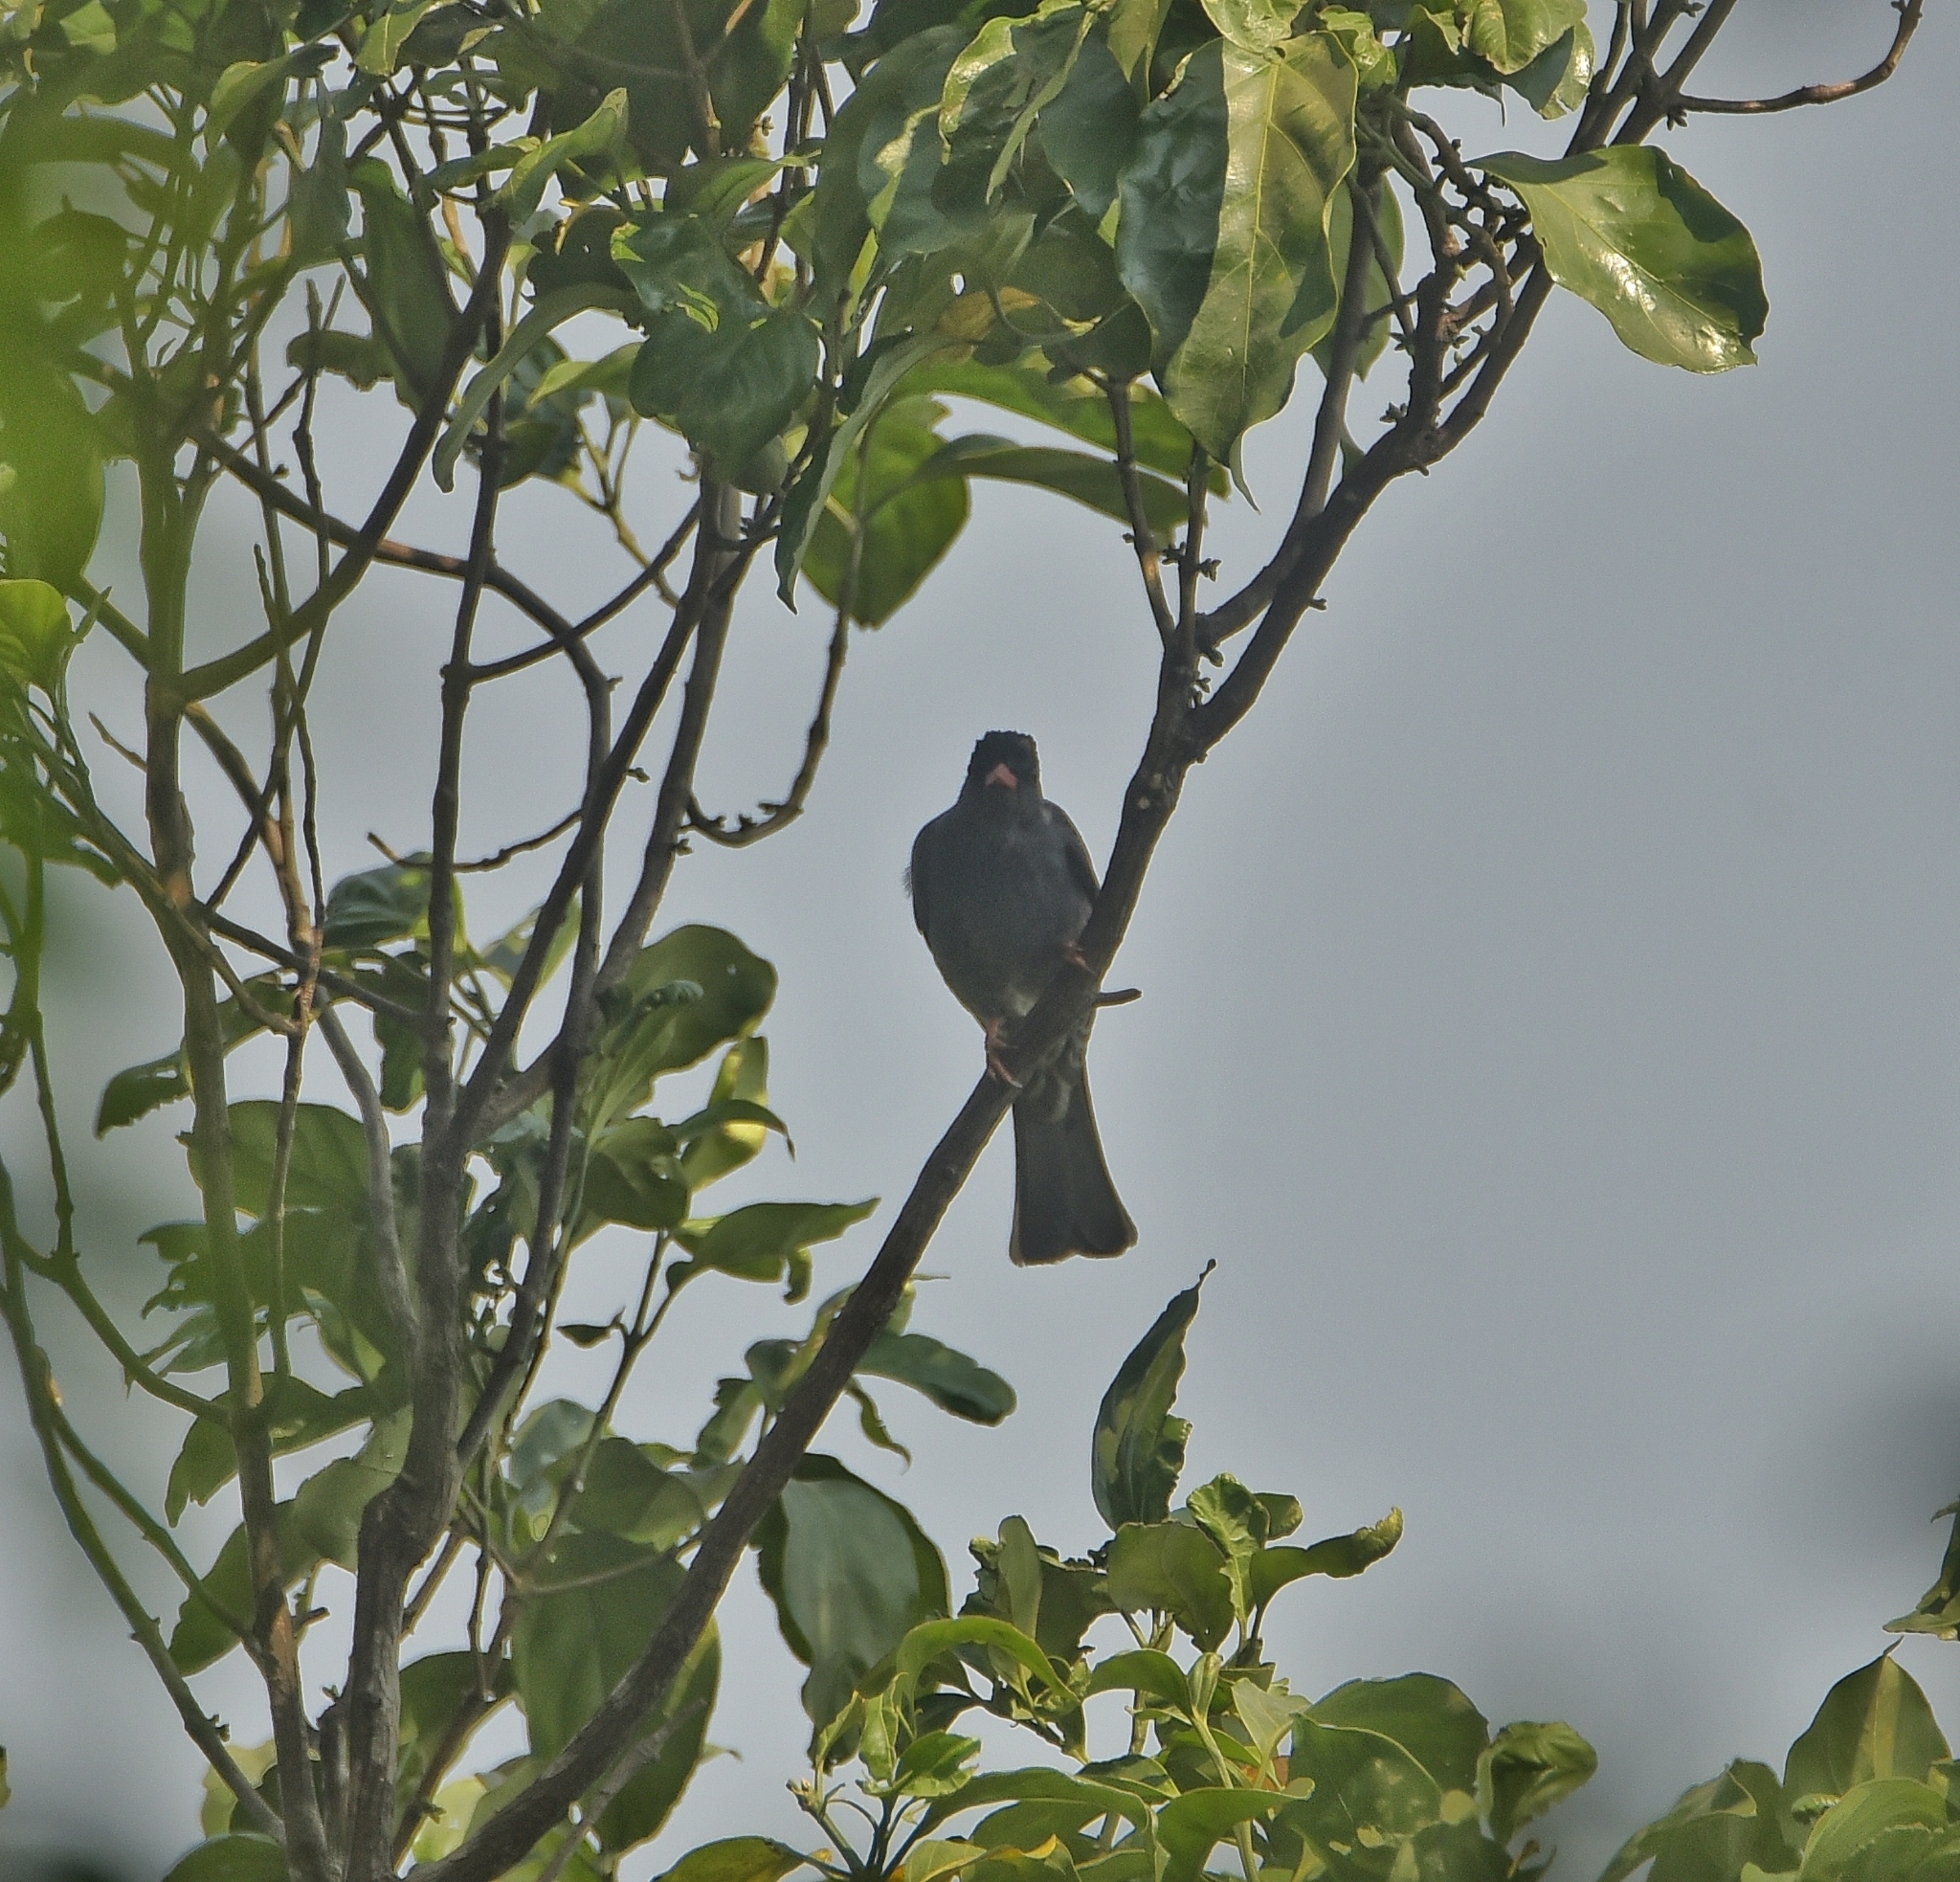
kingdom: Animalia
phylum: Chordata
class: Aves
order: Passeriformes
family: Pycnonotidae
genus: Hypsipetes
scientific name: Hypsipetes ganeesa
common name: Square-tailed bulbul
